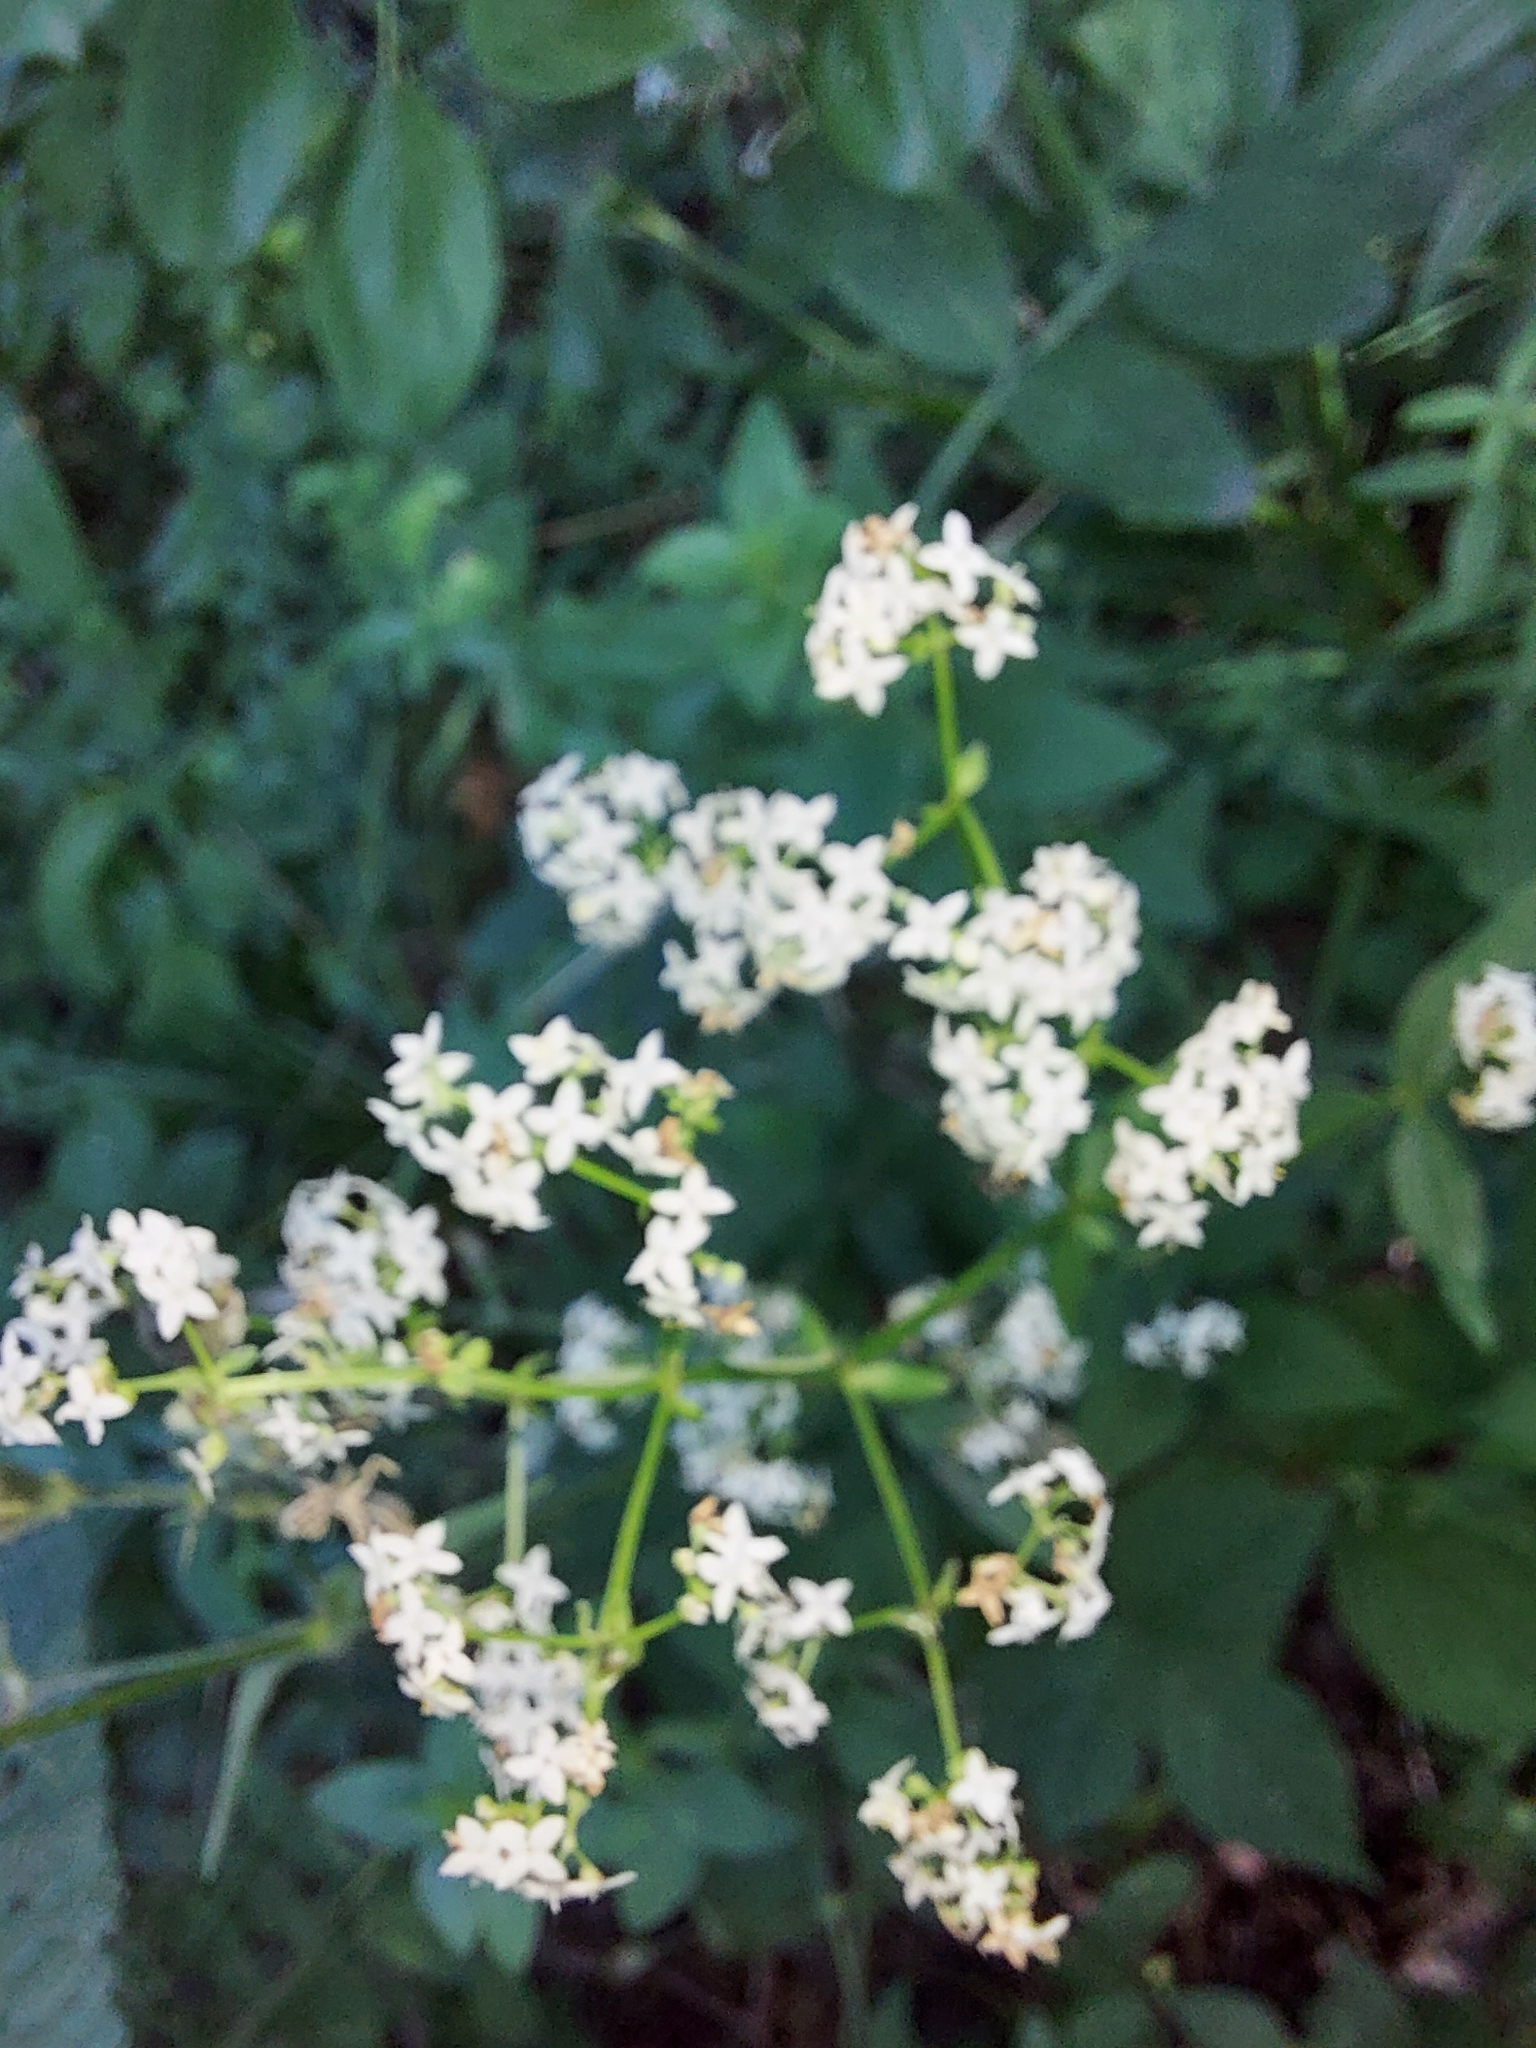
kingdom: Plantae
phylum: Tracheophyta
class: Magnoliopsida
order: Gentianales
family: Rubiaceae
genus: Galium
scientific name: Galium boreale
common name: Northern bedstraw
